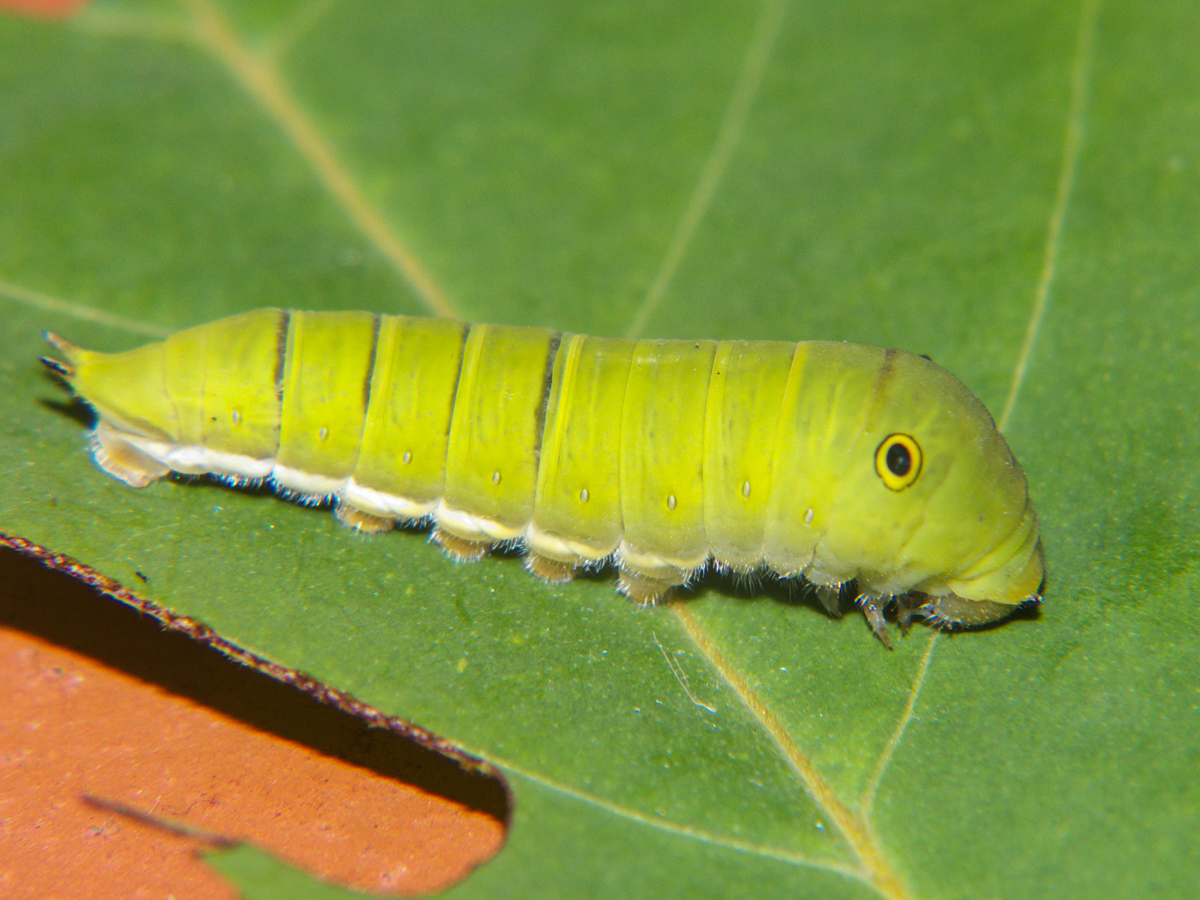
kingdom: Animalia
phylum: Arthropoda
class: Insecta
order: Lepidoptera
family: Papilionidae
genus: Graphium
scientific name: Graphium doson
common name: Common jay
